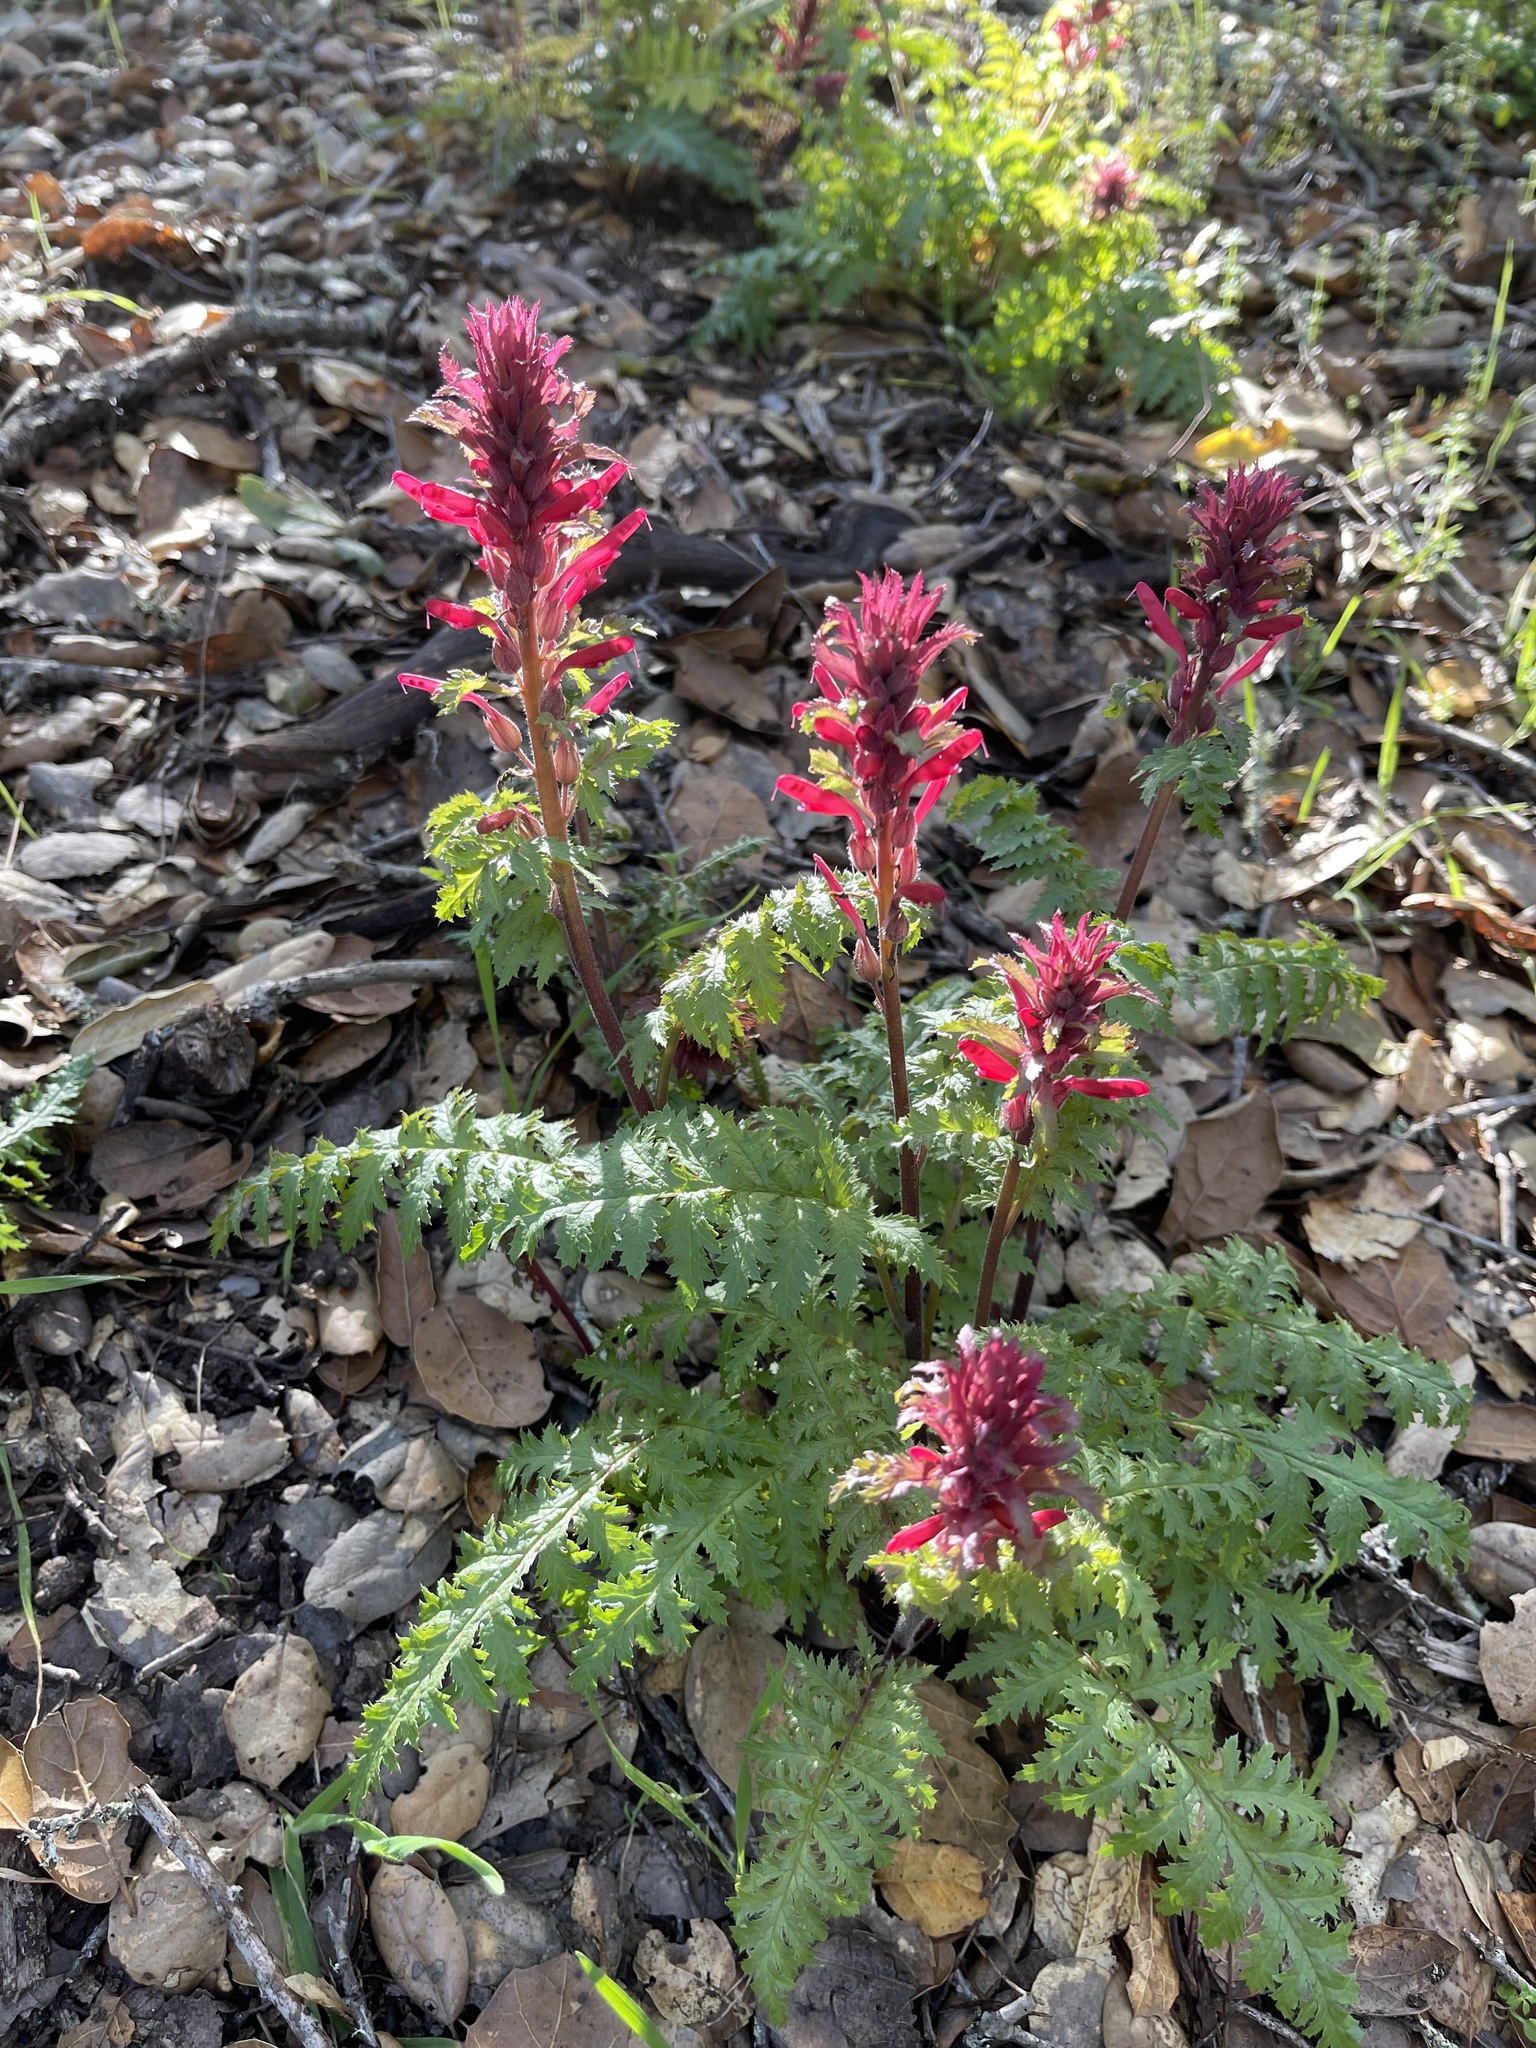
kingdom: Plantae
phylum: Tracheophyta
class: Magnoliopsida
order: Lamiales
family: Orobanchaceae
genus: Pedicularis
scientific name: Pedicularis densiflora
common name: Indian warrior
